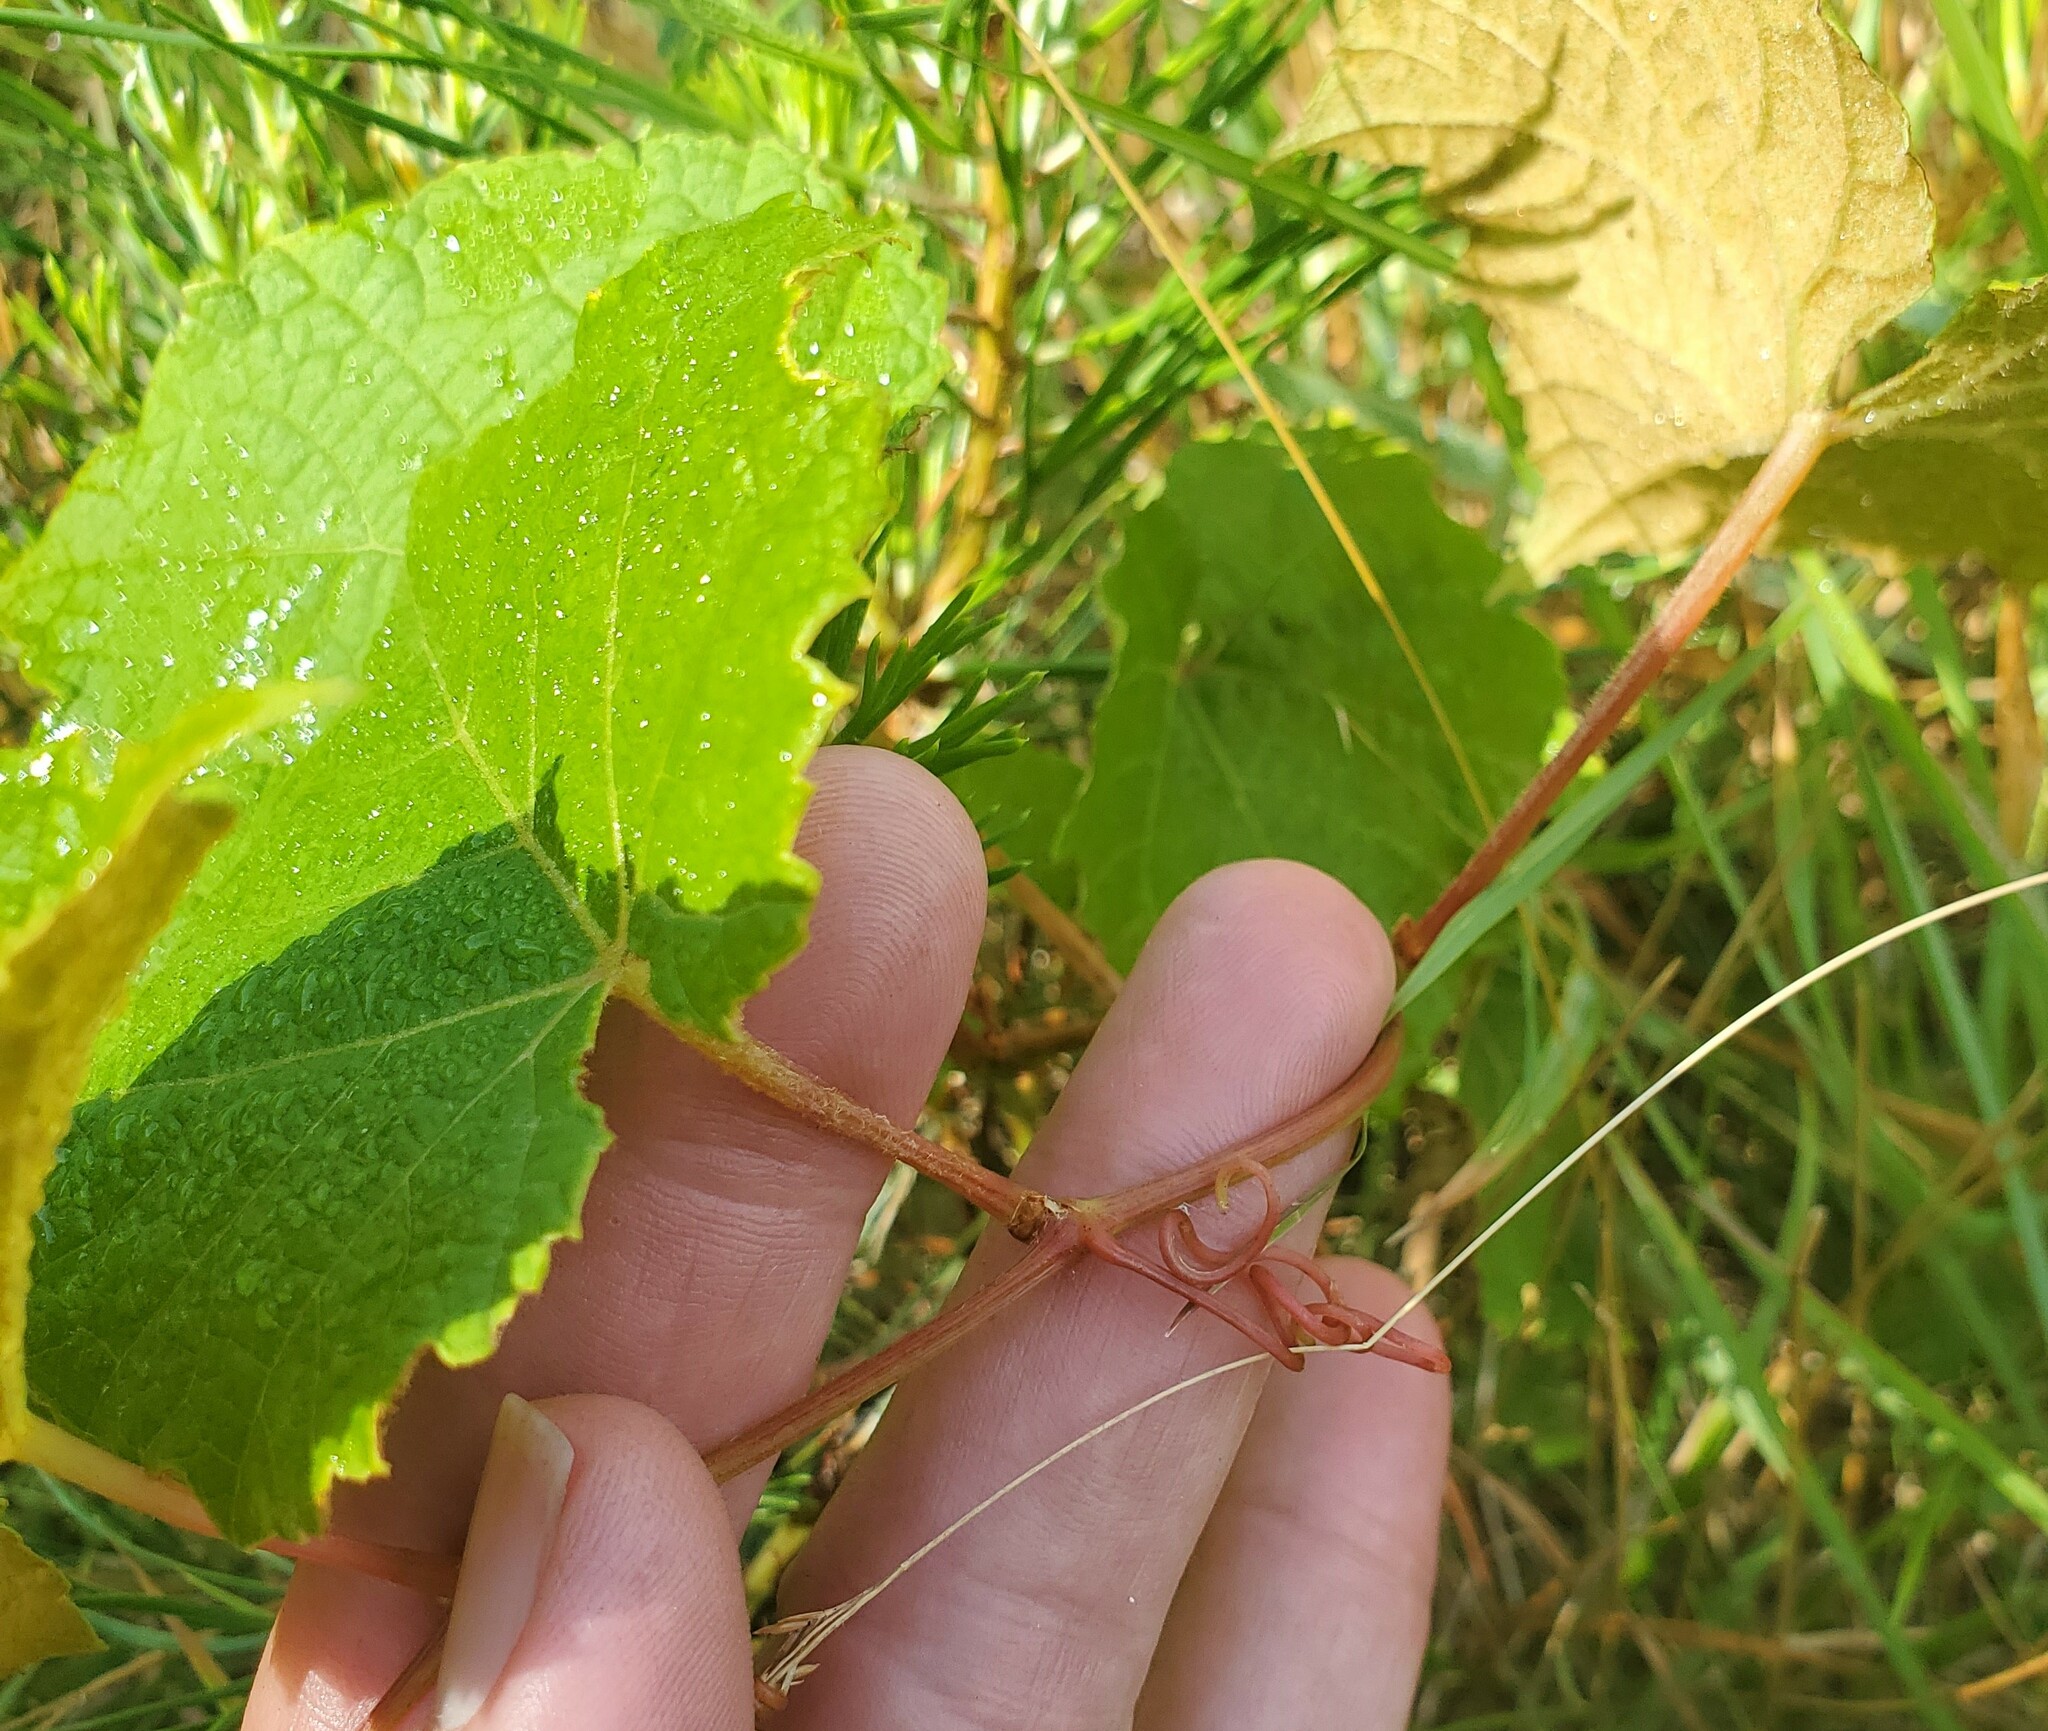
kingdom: Plantae
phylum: Tracheophyta
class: Magnoliopsida
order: Vitales
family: Vitaceae
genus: Vitis
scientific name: Vitis labrusca
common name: Concord grape
